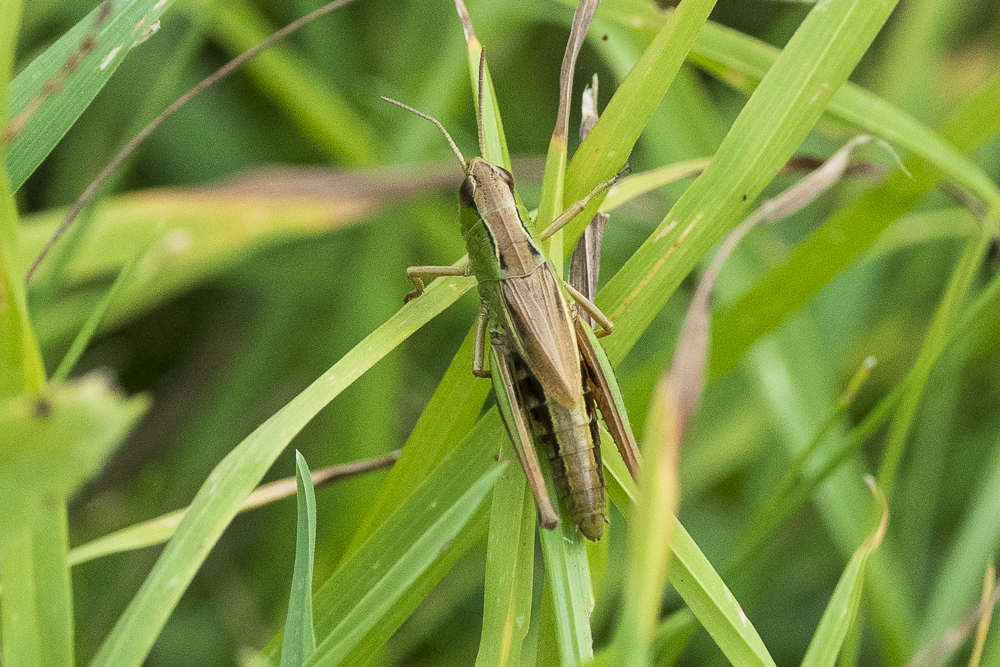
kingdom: Animalia
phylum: Arthropoda
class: Insecta
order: Orthoptera
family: Acrididae
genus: Pseudochorthippus
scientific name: Pseudochorthippus parallelus
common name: Meadow grasshopper
